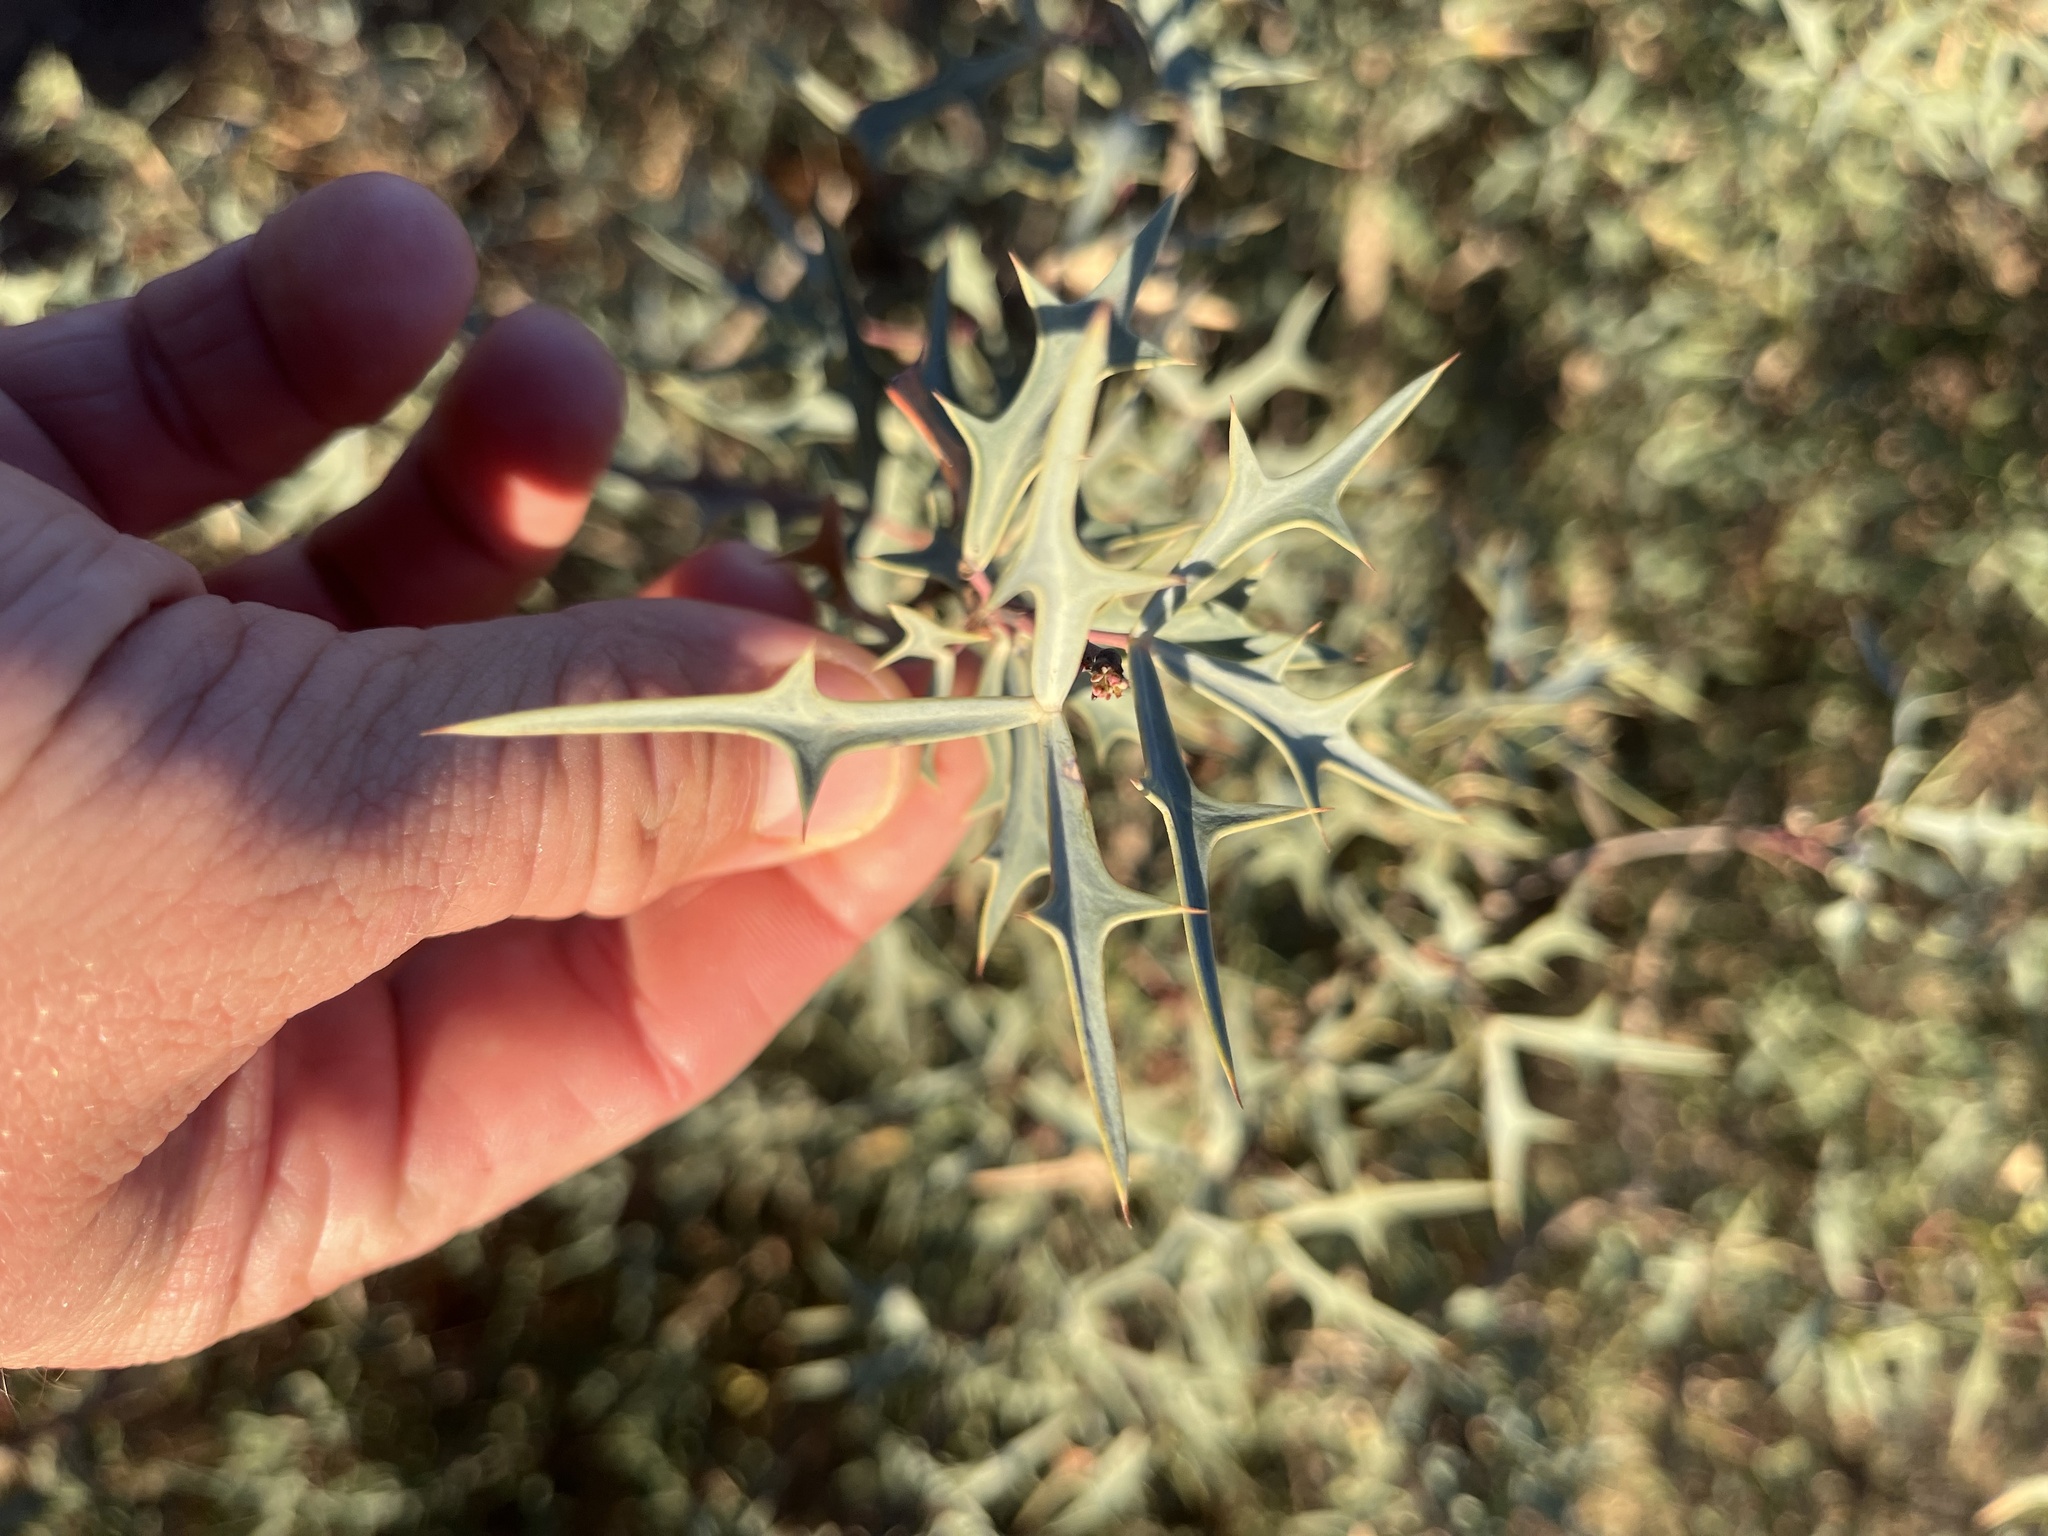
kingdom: Plantae
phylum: Tracheophyta
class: Magnoliopsida
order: Ranunculales
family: Berberidaceae
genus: Alloberberis
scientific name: Alloberberis trifoliolata
